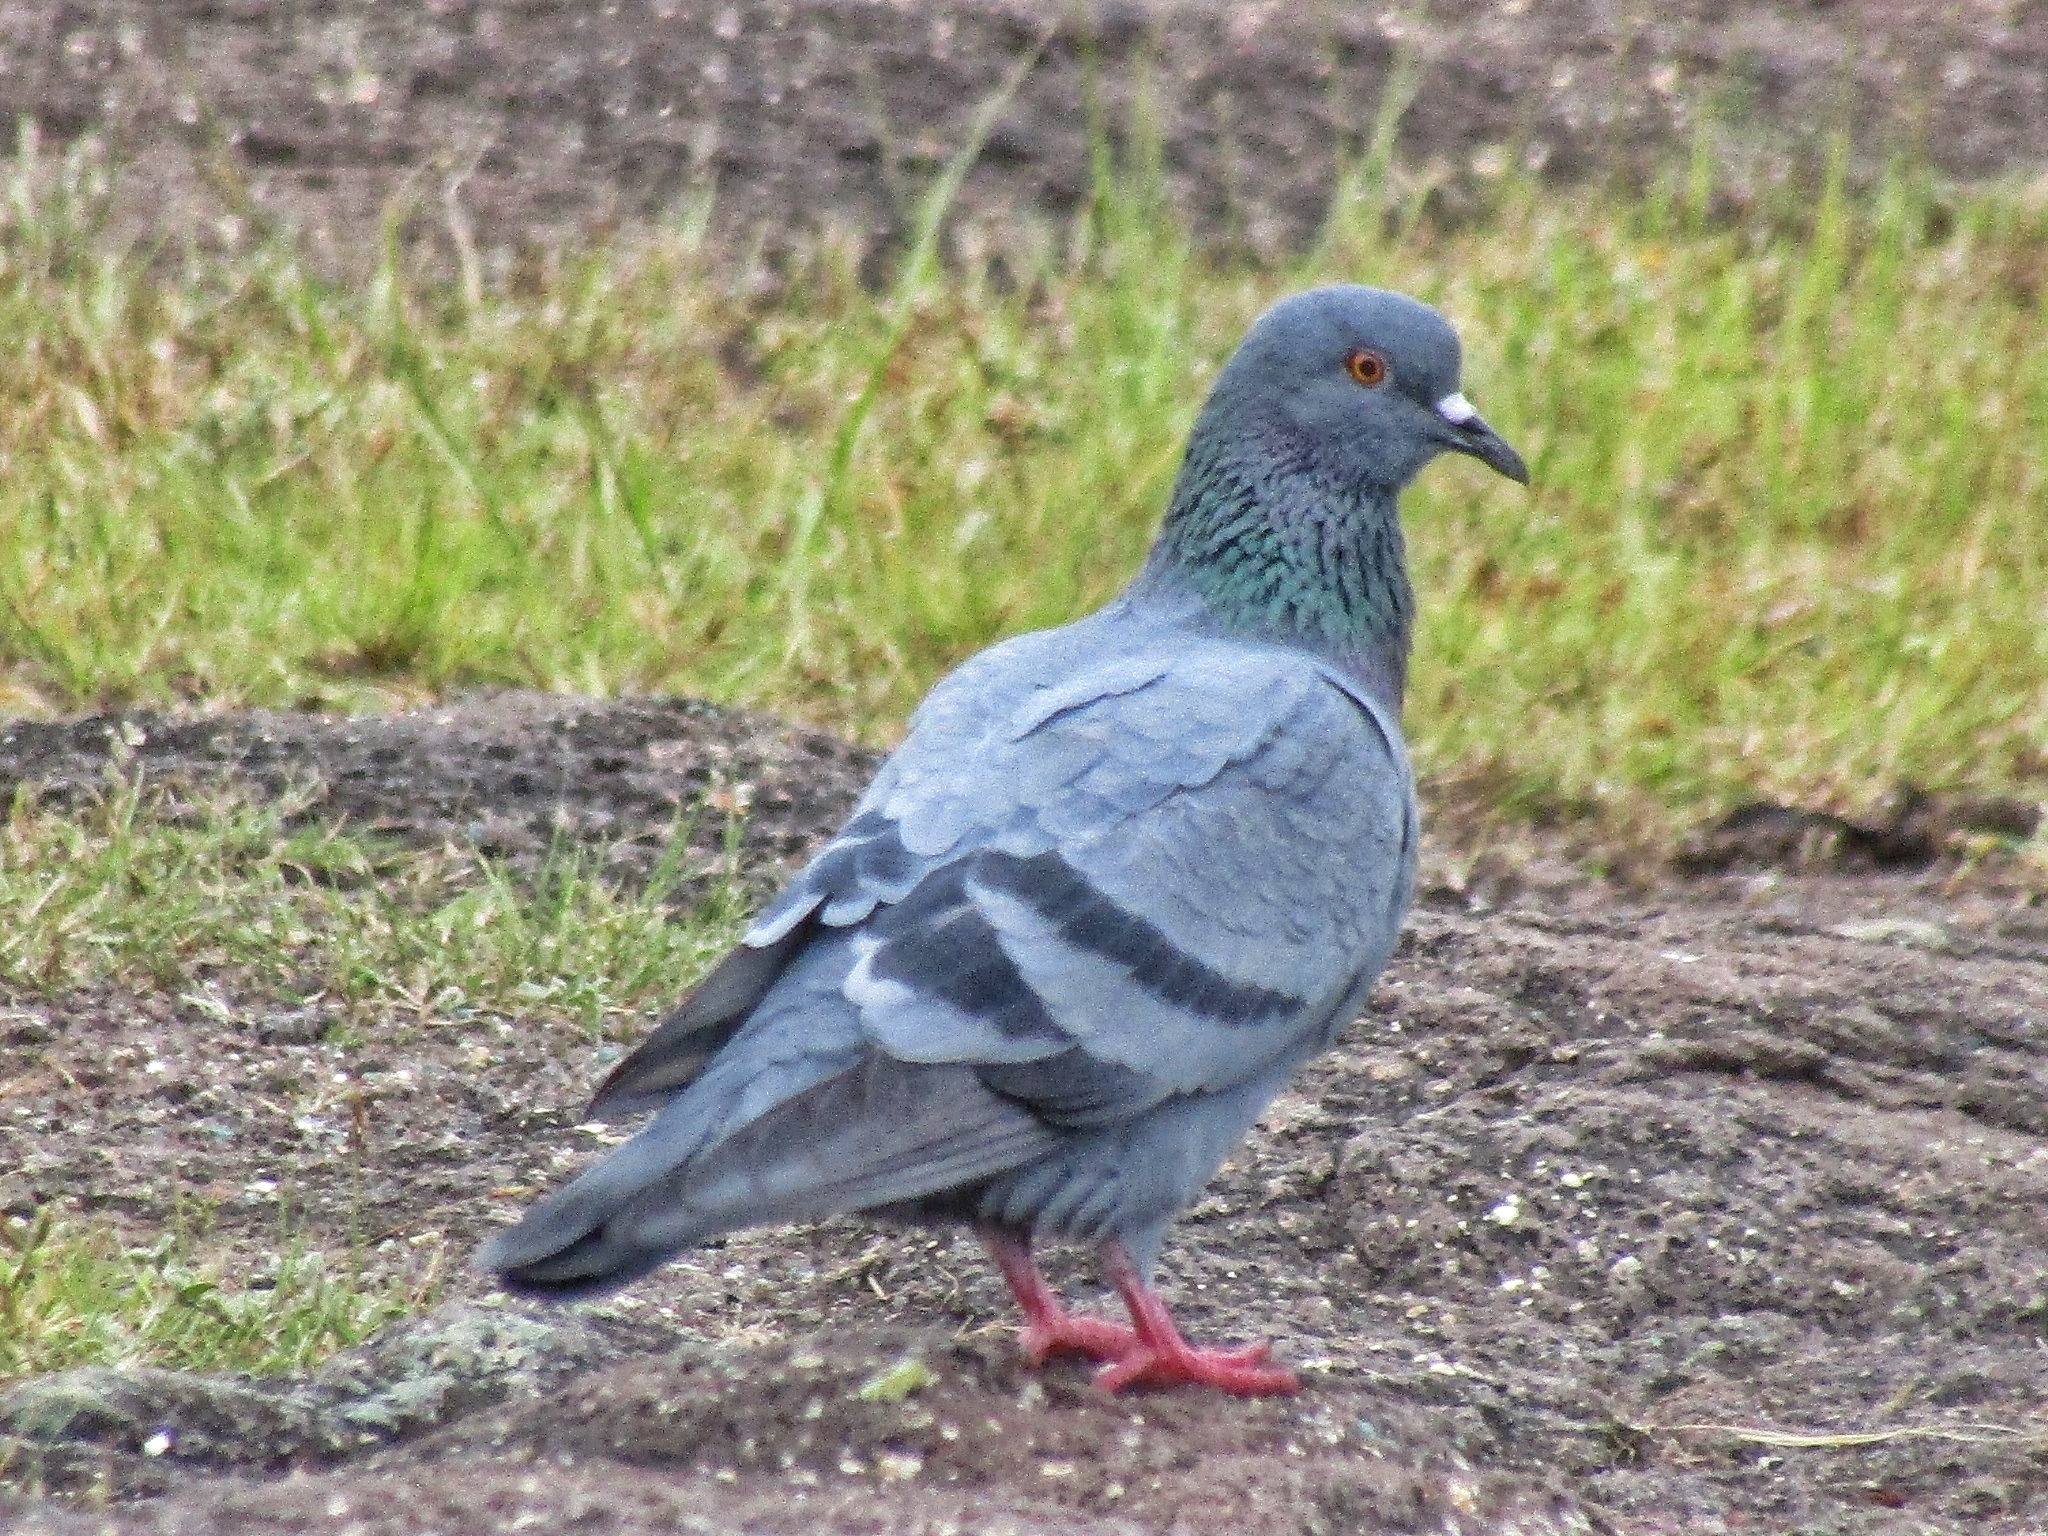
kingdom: Animalia
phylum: Chordata
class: Aves
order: Columbiformes
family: Columbidae
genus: Columba
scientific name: Columba livia
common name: Rock pigeon
